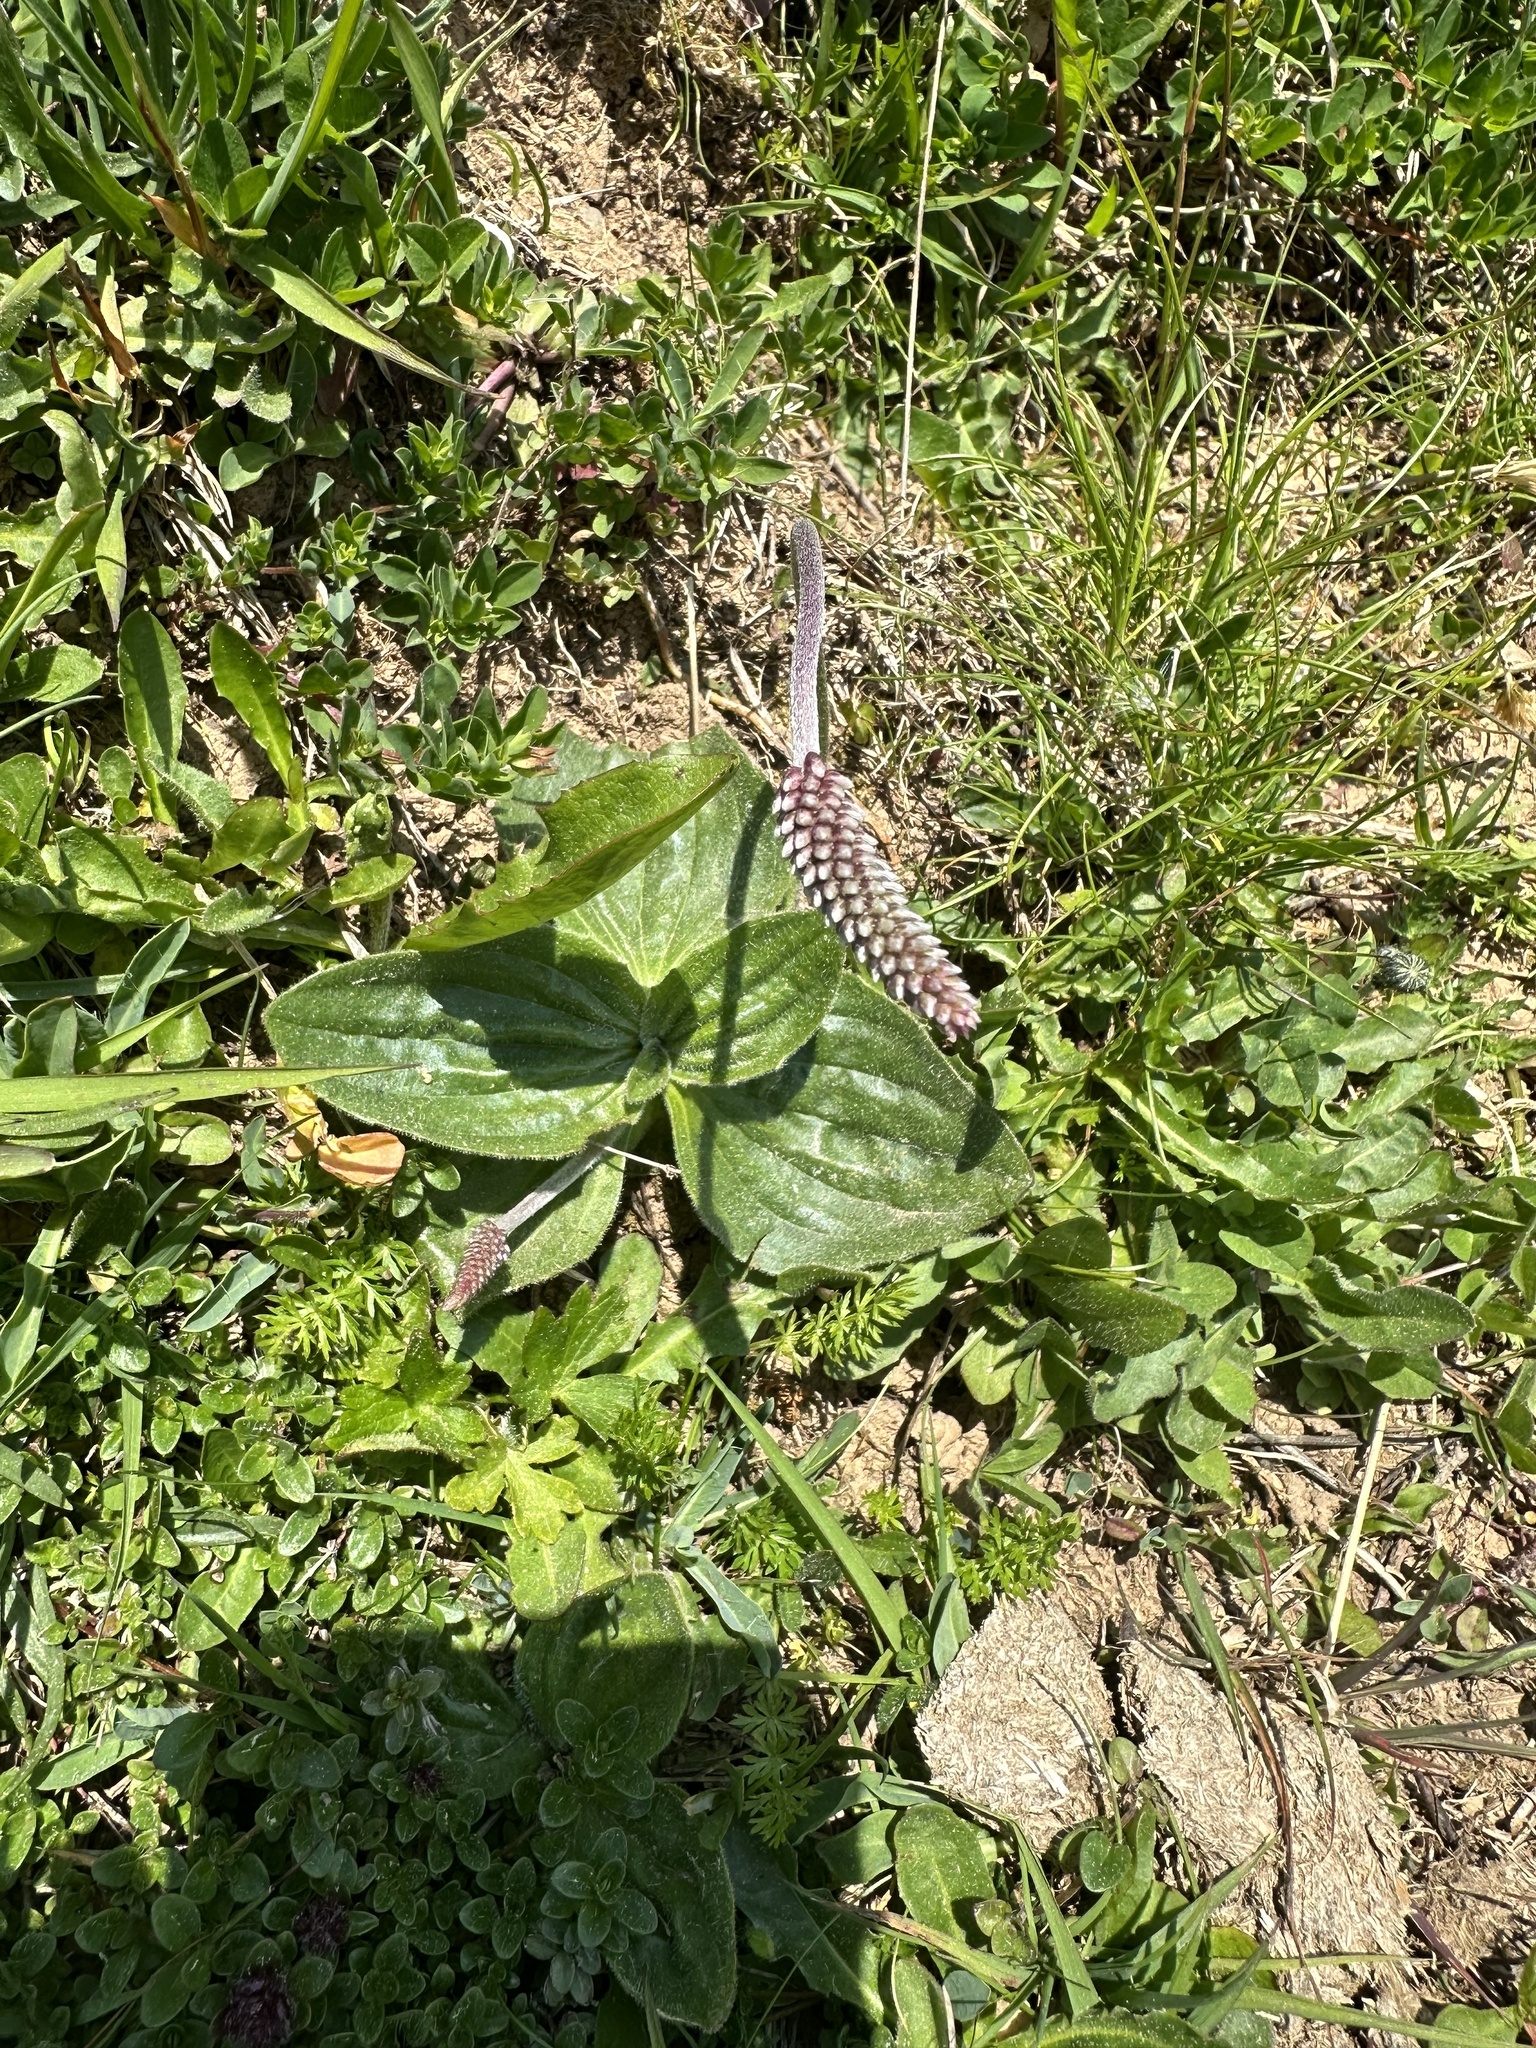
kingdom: Plantae
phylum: Tracheophyta
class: Magnoliopsida
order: Lamiales
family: Plantaginaceae
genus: Plantago
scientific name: Plantago media
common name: Hoary plantain
